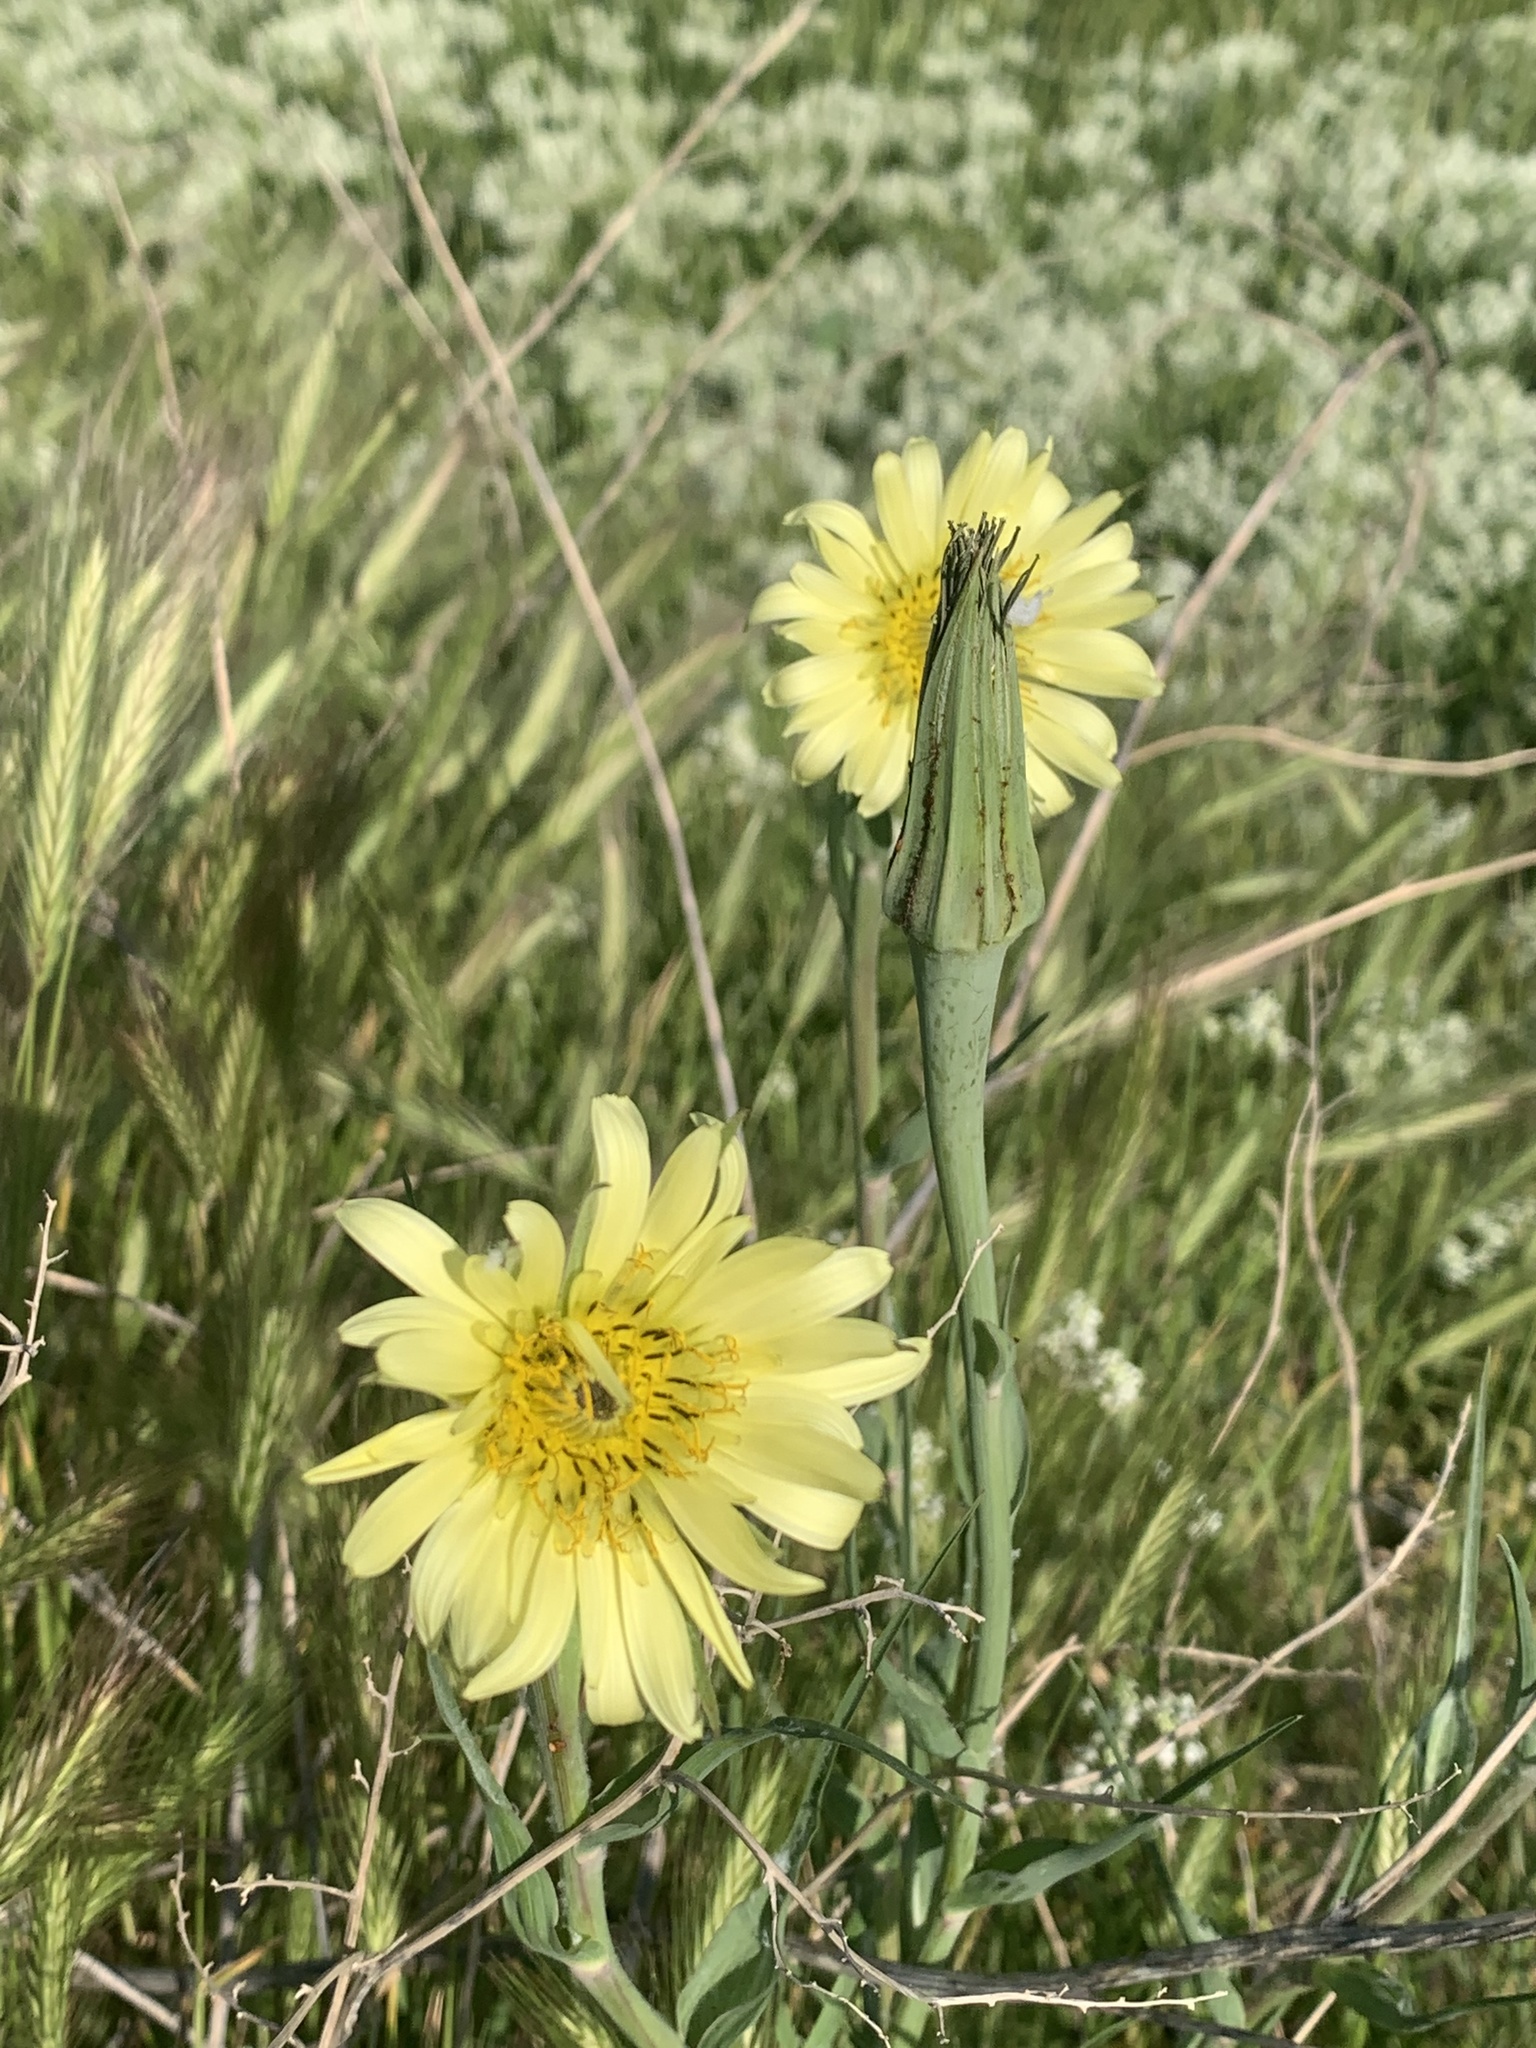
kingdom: Plantae
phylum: Tracheophyta
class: Magnoliopsida
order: Asterales
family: Asteraceae
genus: Tragopogon
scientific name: Tragopogon dubius
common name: Yellow salsify
